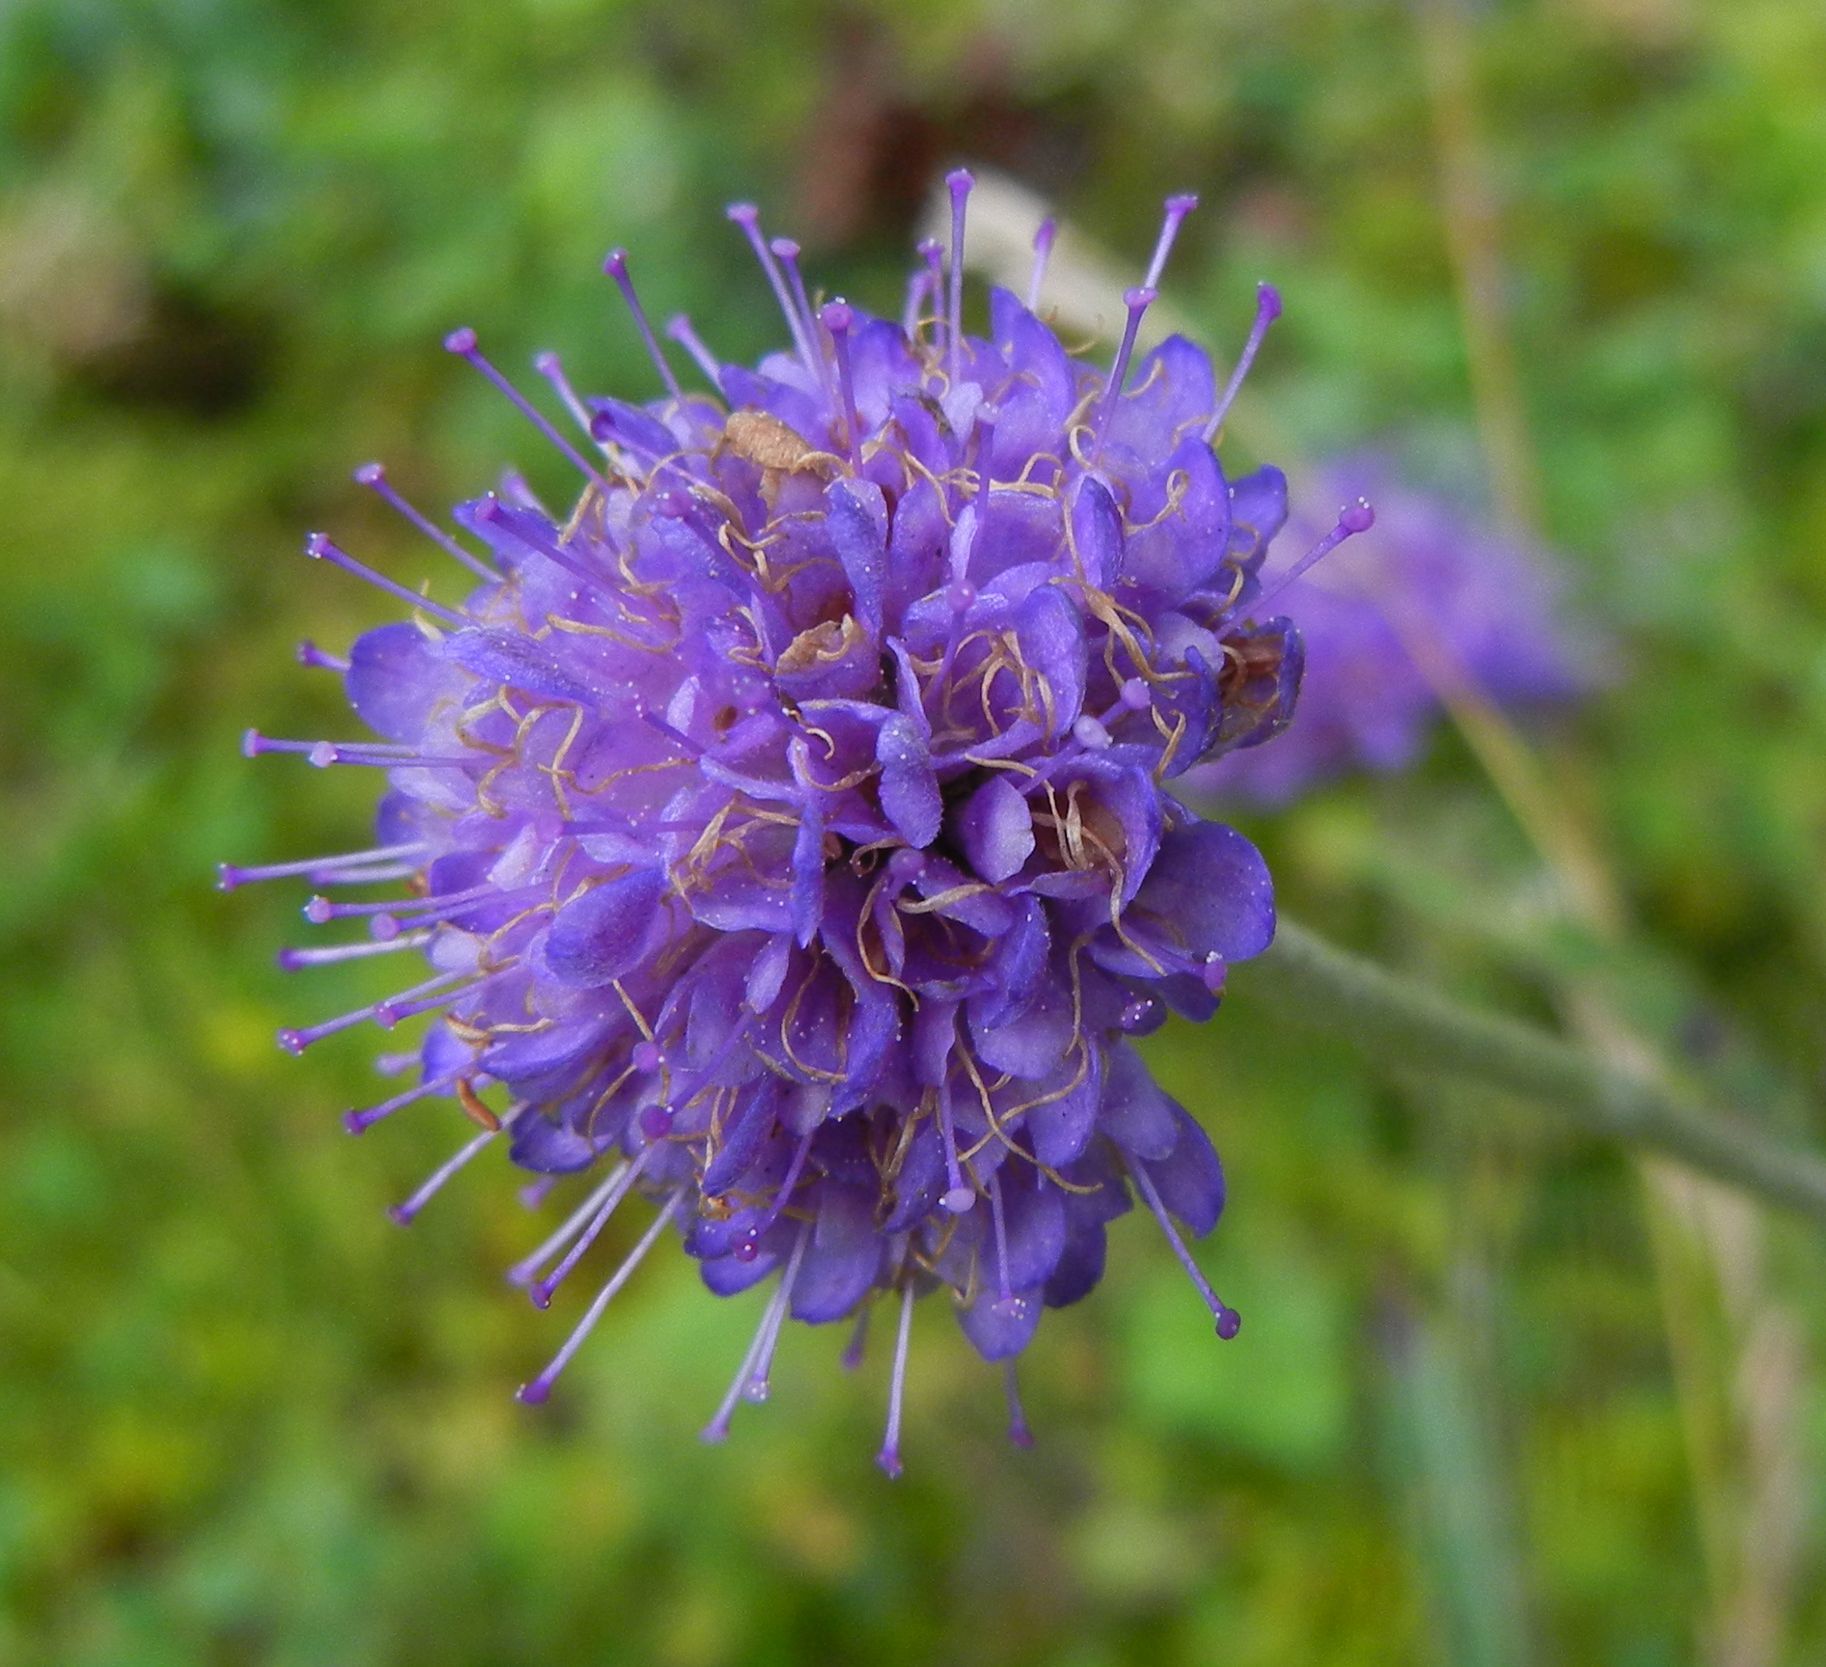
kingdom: Plantae
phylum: Tracheophyta
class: Magnoliopsida
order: Dipsacales
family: Caprifoliaceae
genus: Succisa
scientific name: Succisa pratensis
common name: Devil's-bit
